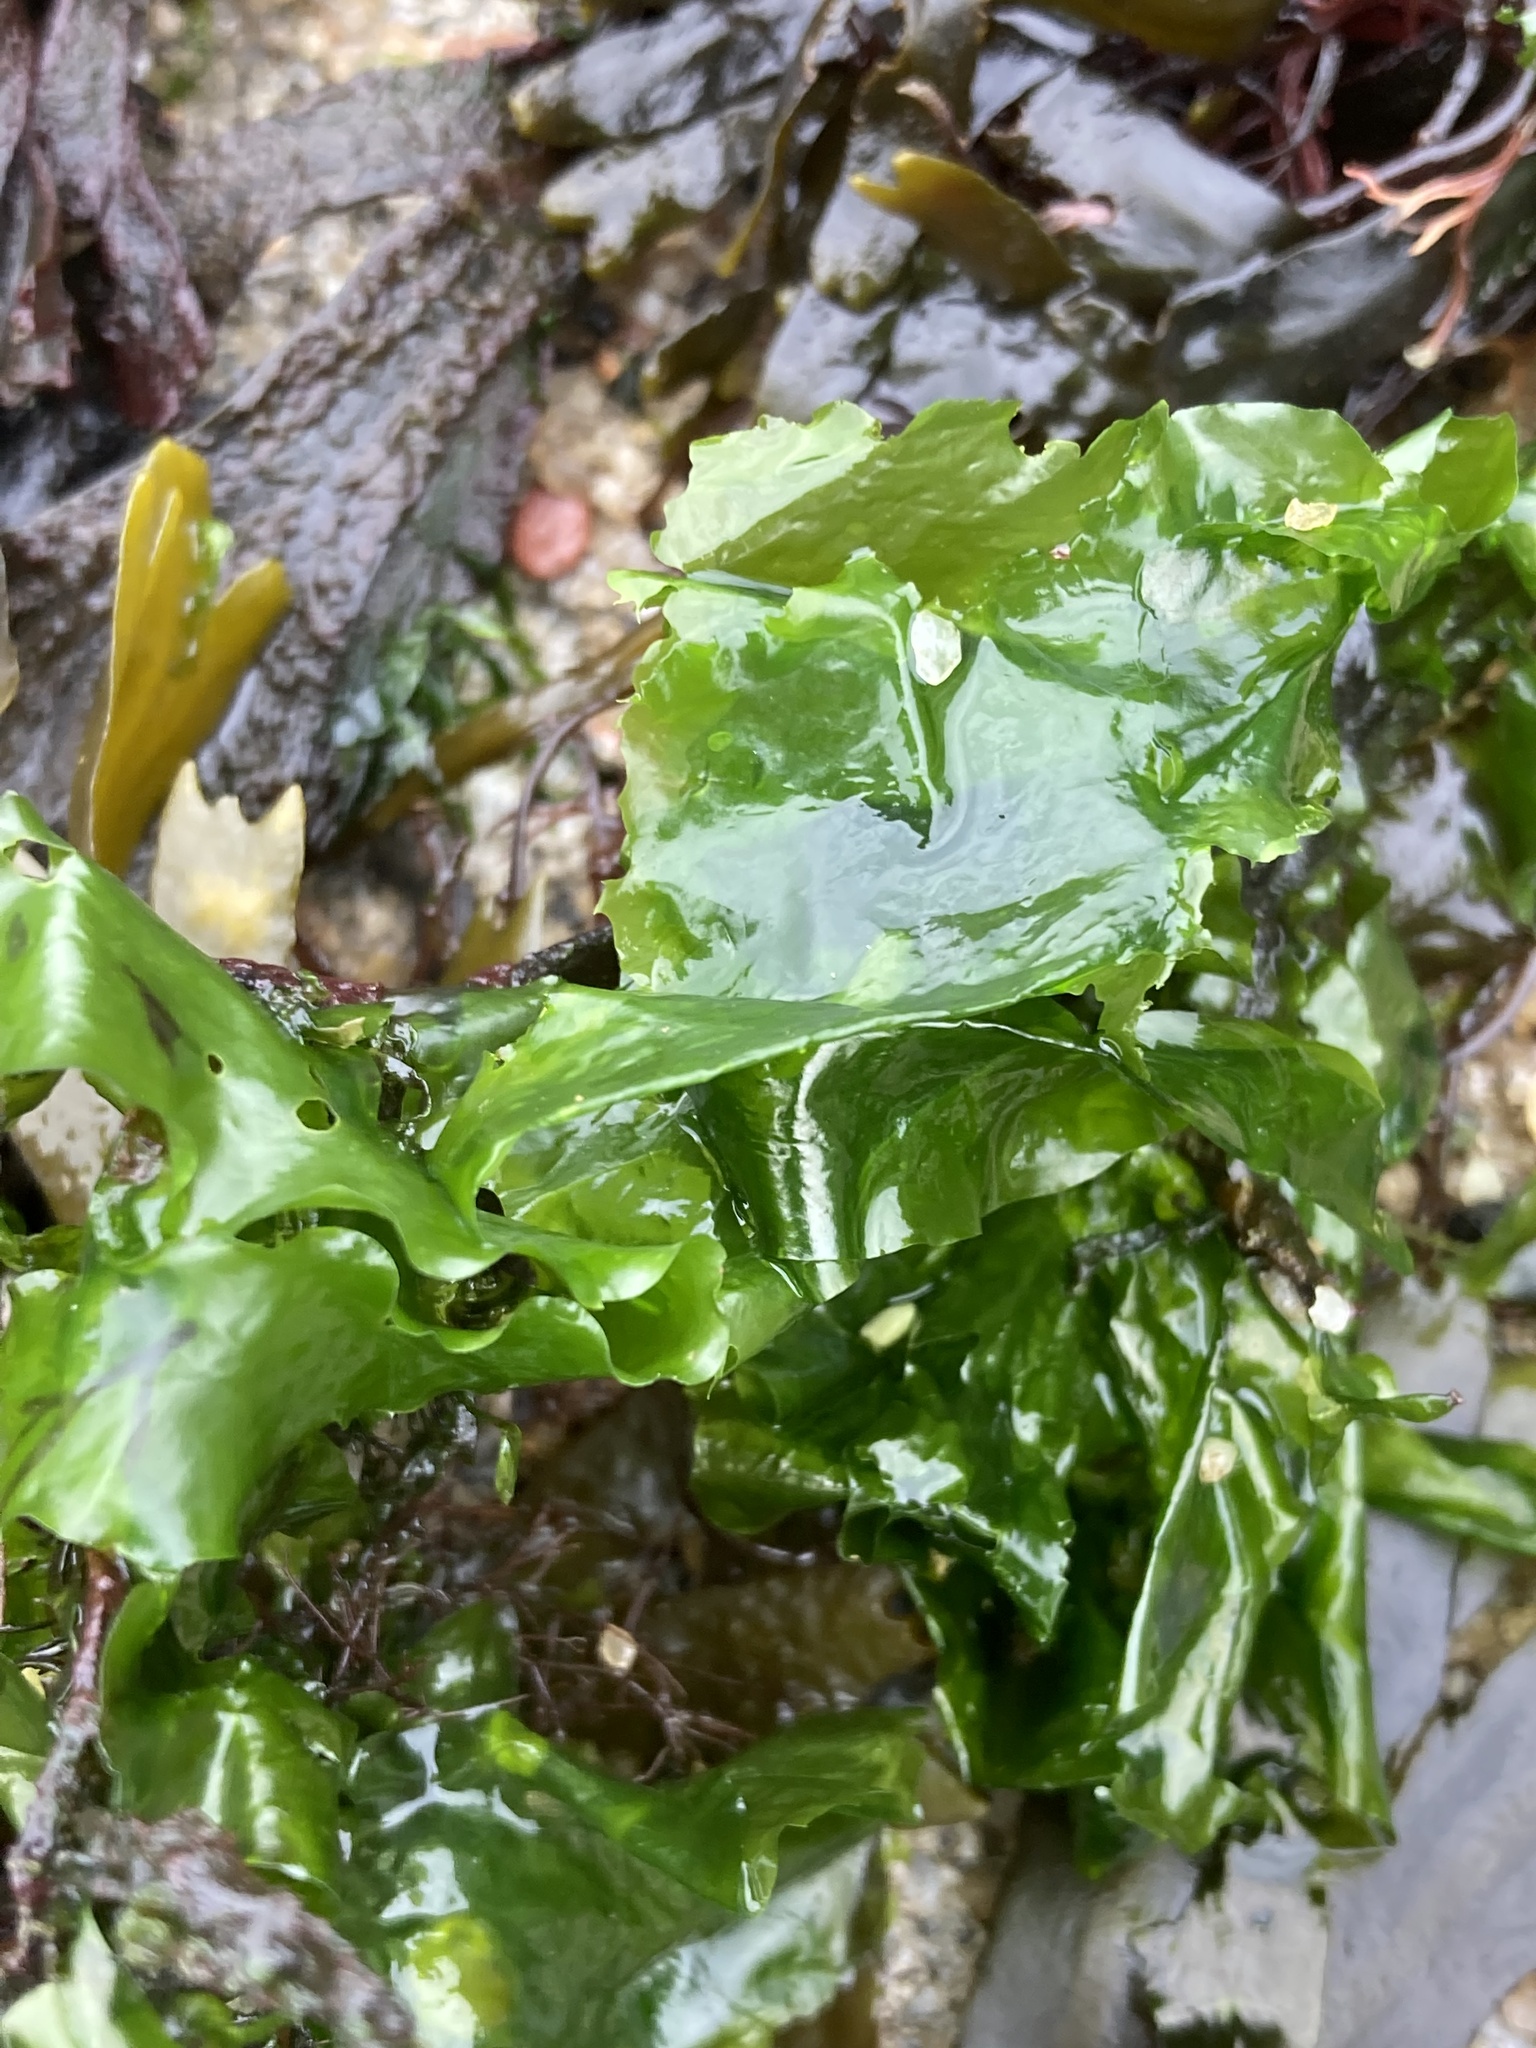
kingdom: Plantae
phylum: Chlorophyta
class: Ulvophyceae
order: Ulvales
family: Ulvaceae
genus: Ulva
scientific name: Ulva lactuca
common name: Sea lettuce
